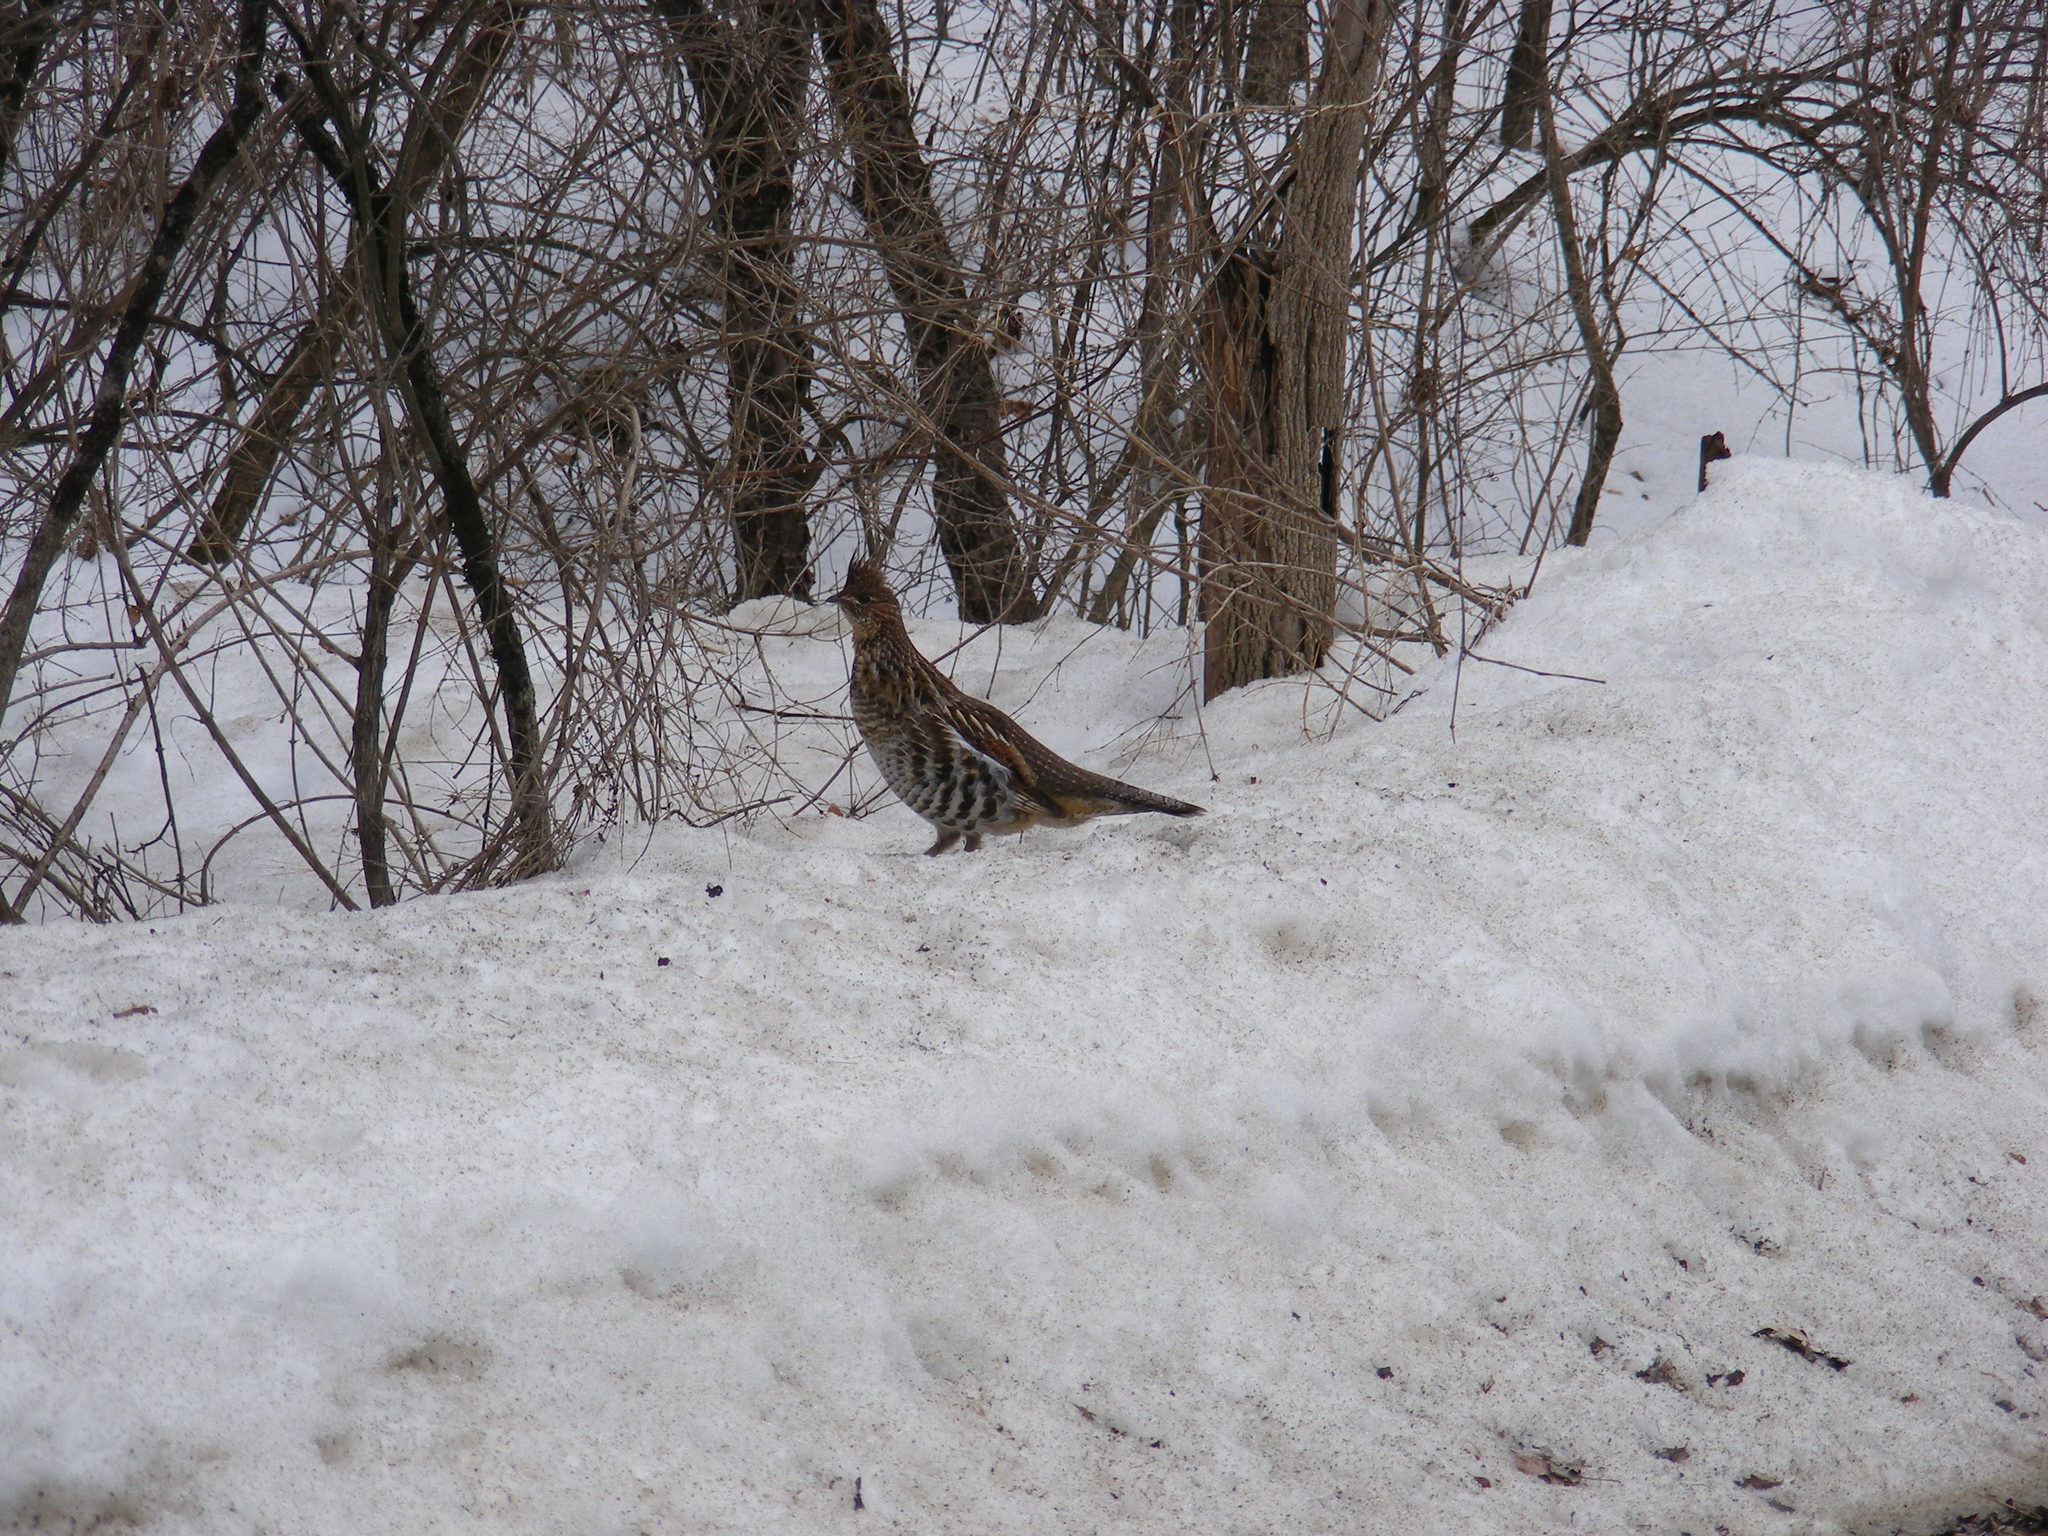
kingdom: Animalia
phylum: Chordata
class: Aves
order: Galliformes
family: Phasianidae
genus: Bonasa
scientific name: Bonasa umbellus
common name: Ruffed grouse
